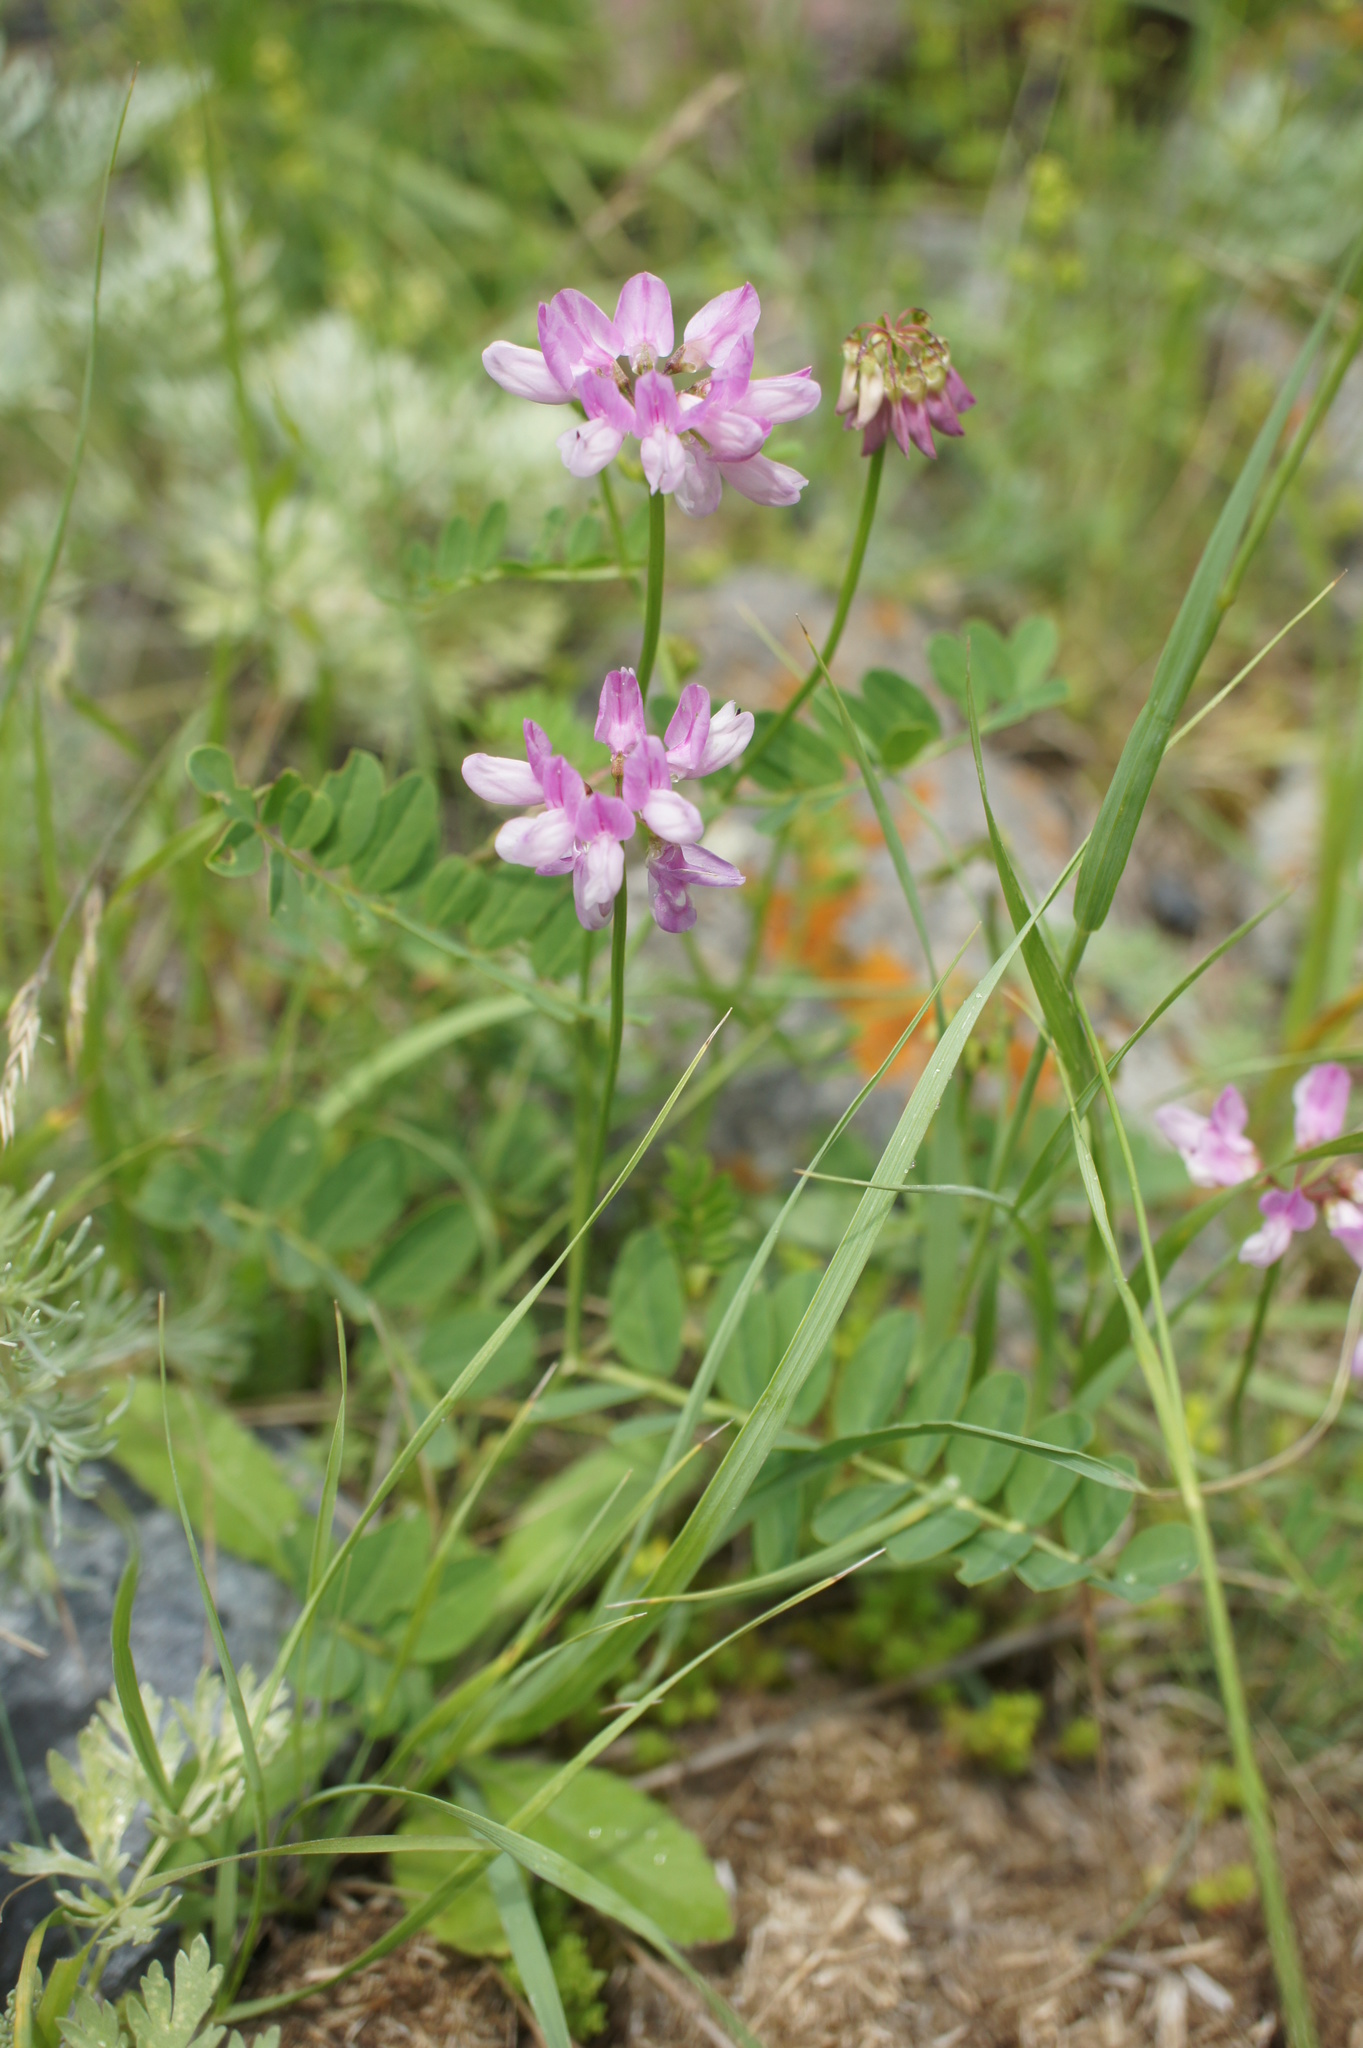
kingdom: Plantae
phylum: Tracheophyta
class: Magnoliopsida
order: Fabales
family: Fabaceae
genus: Coronilla
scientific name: Coronilla varia
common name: Crownvetch
